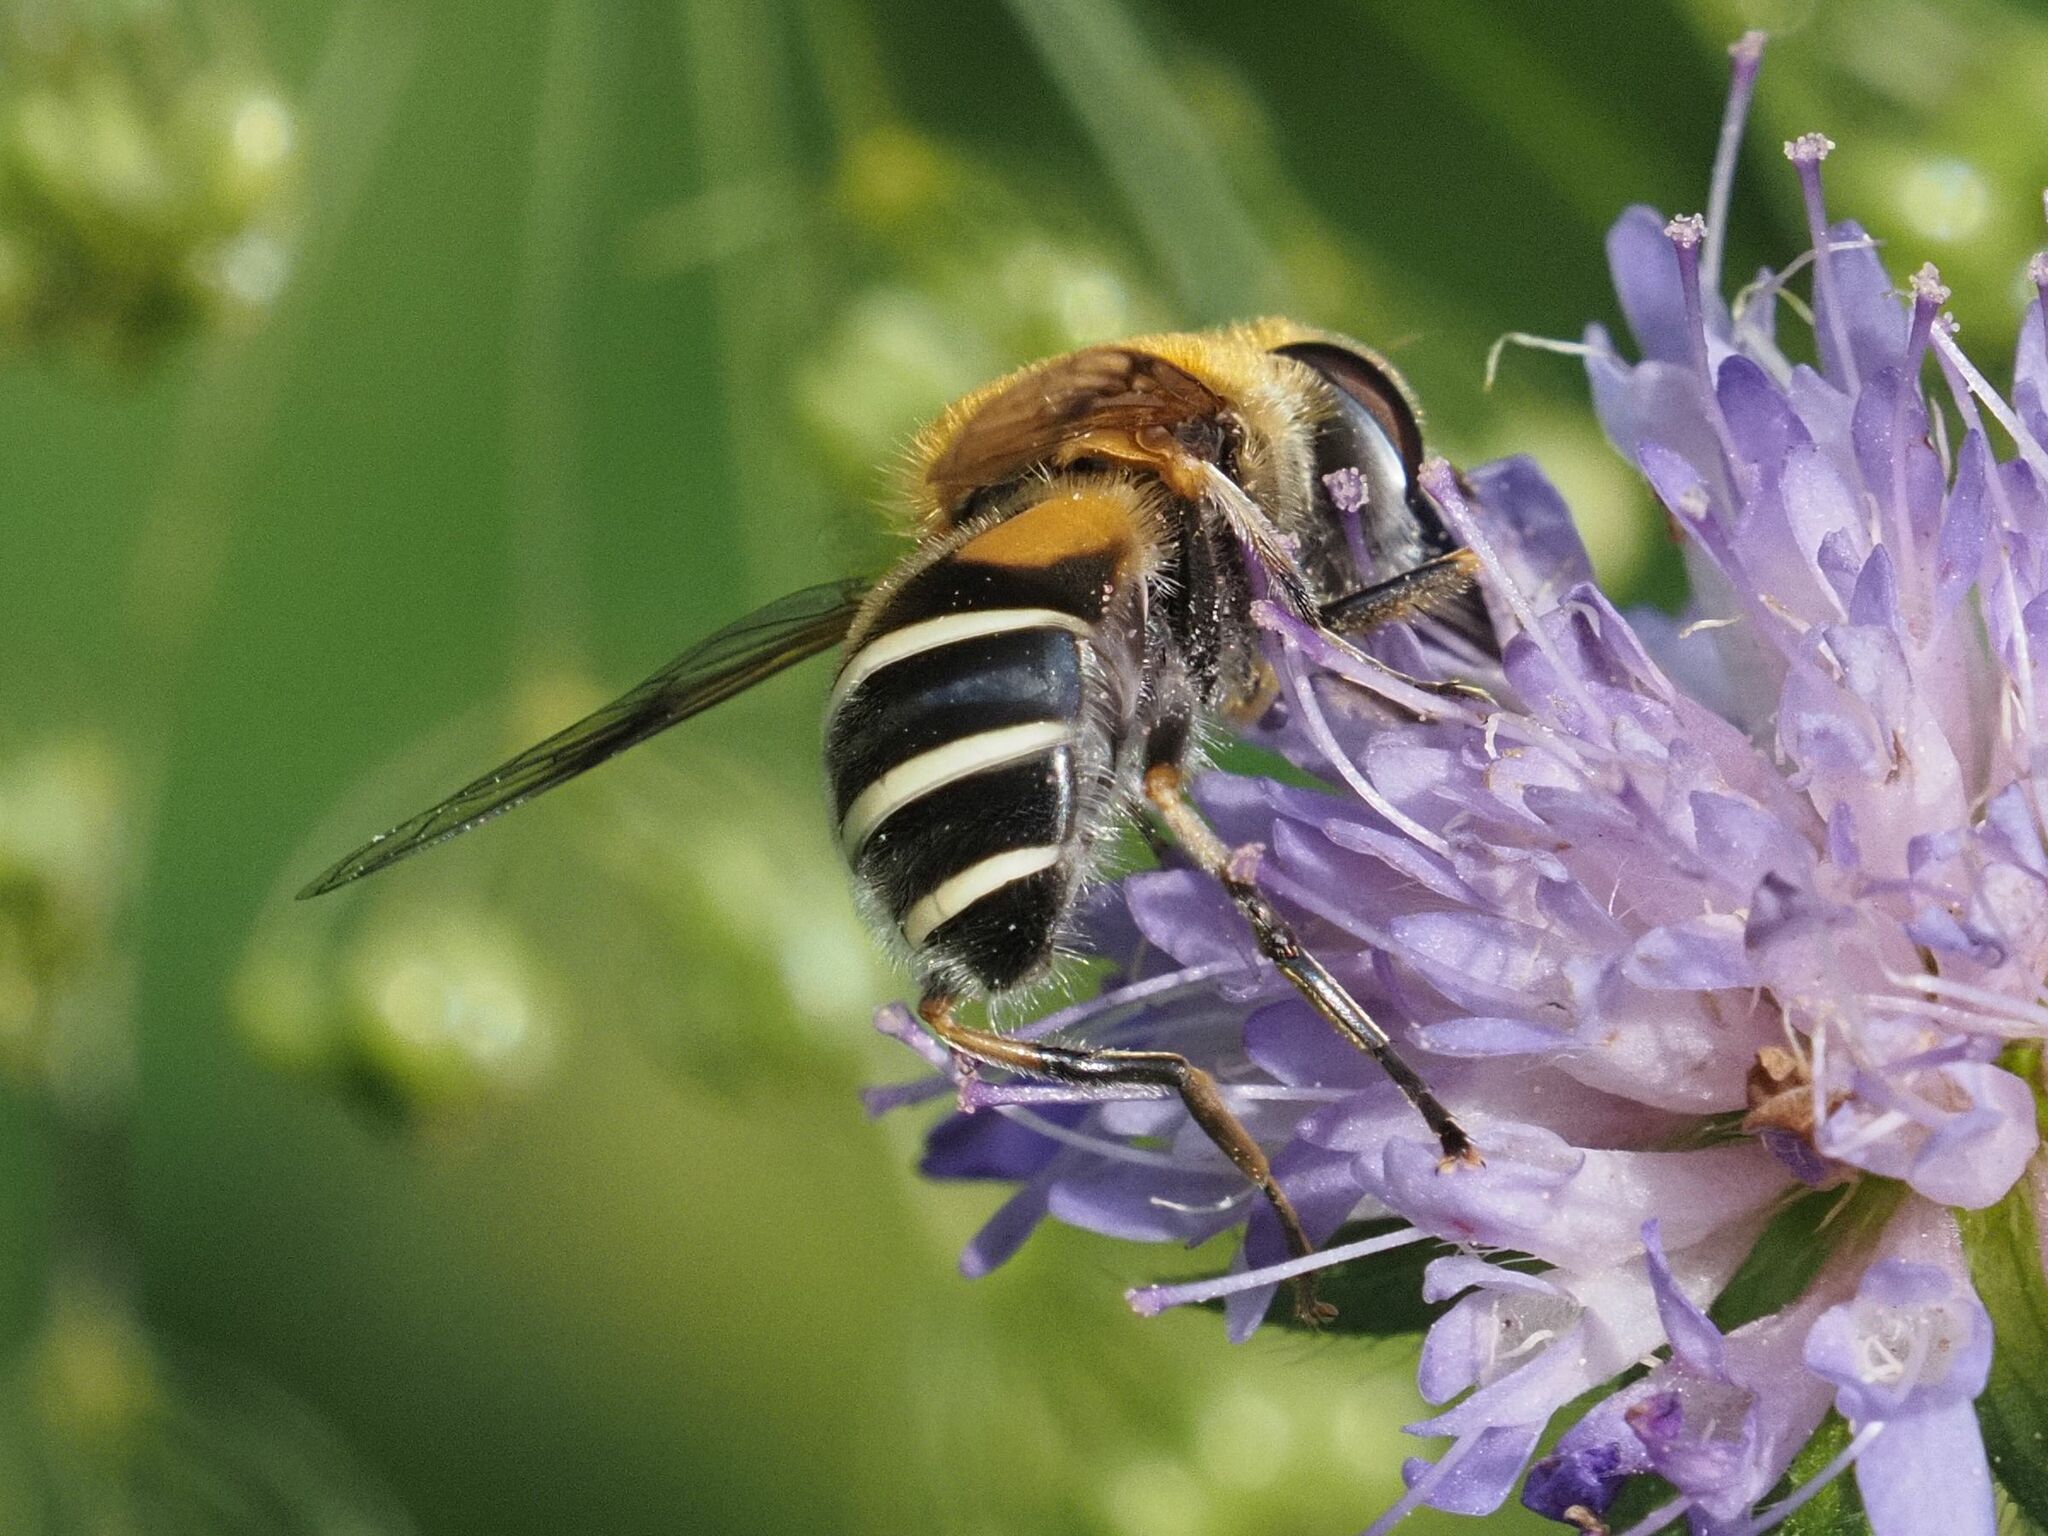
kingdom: Animalia
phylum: Arthropoda
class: Insecta
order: Diptera
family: Syrphidae
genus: Eristalis
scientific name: Eristalis jugorum
